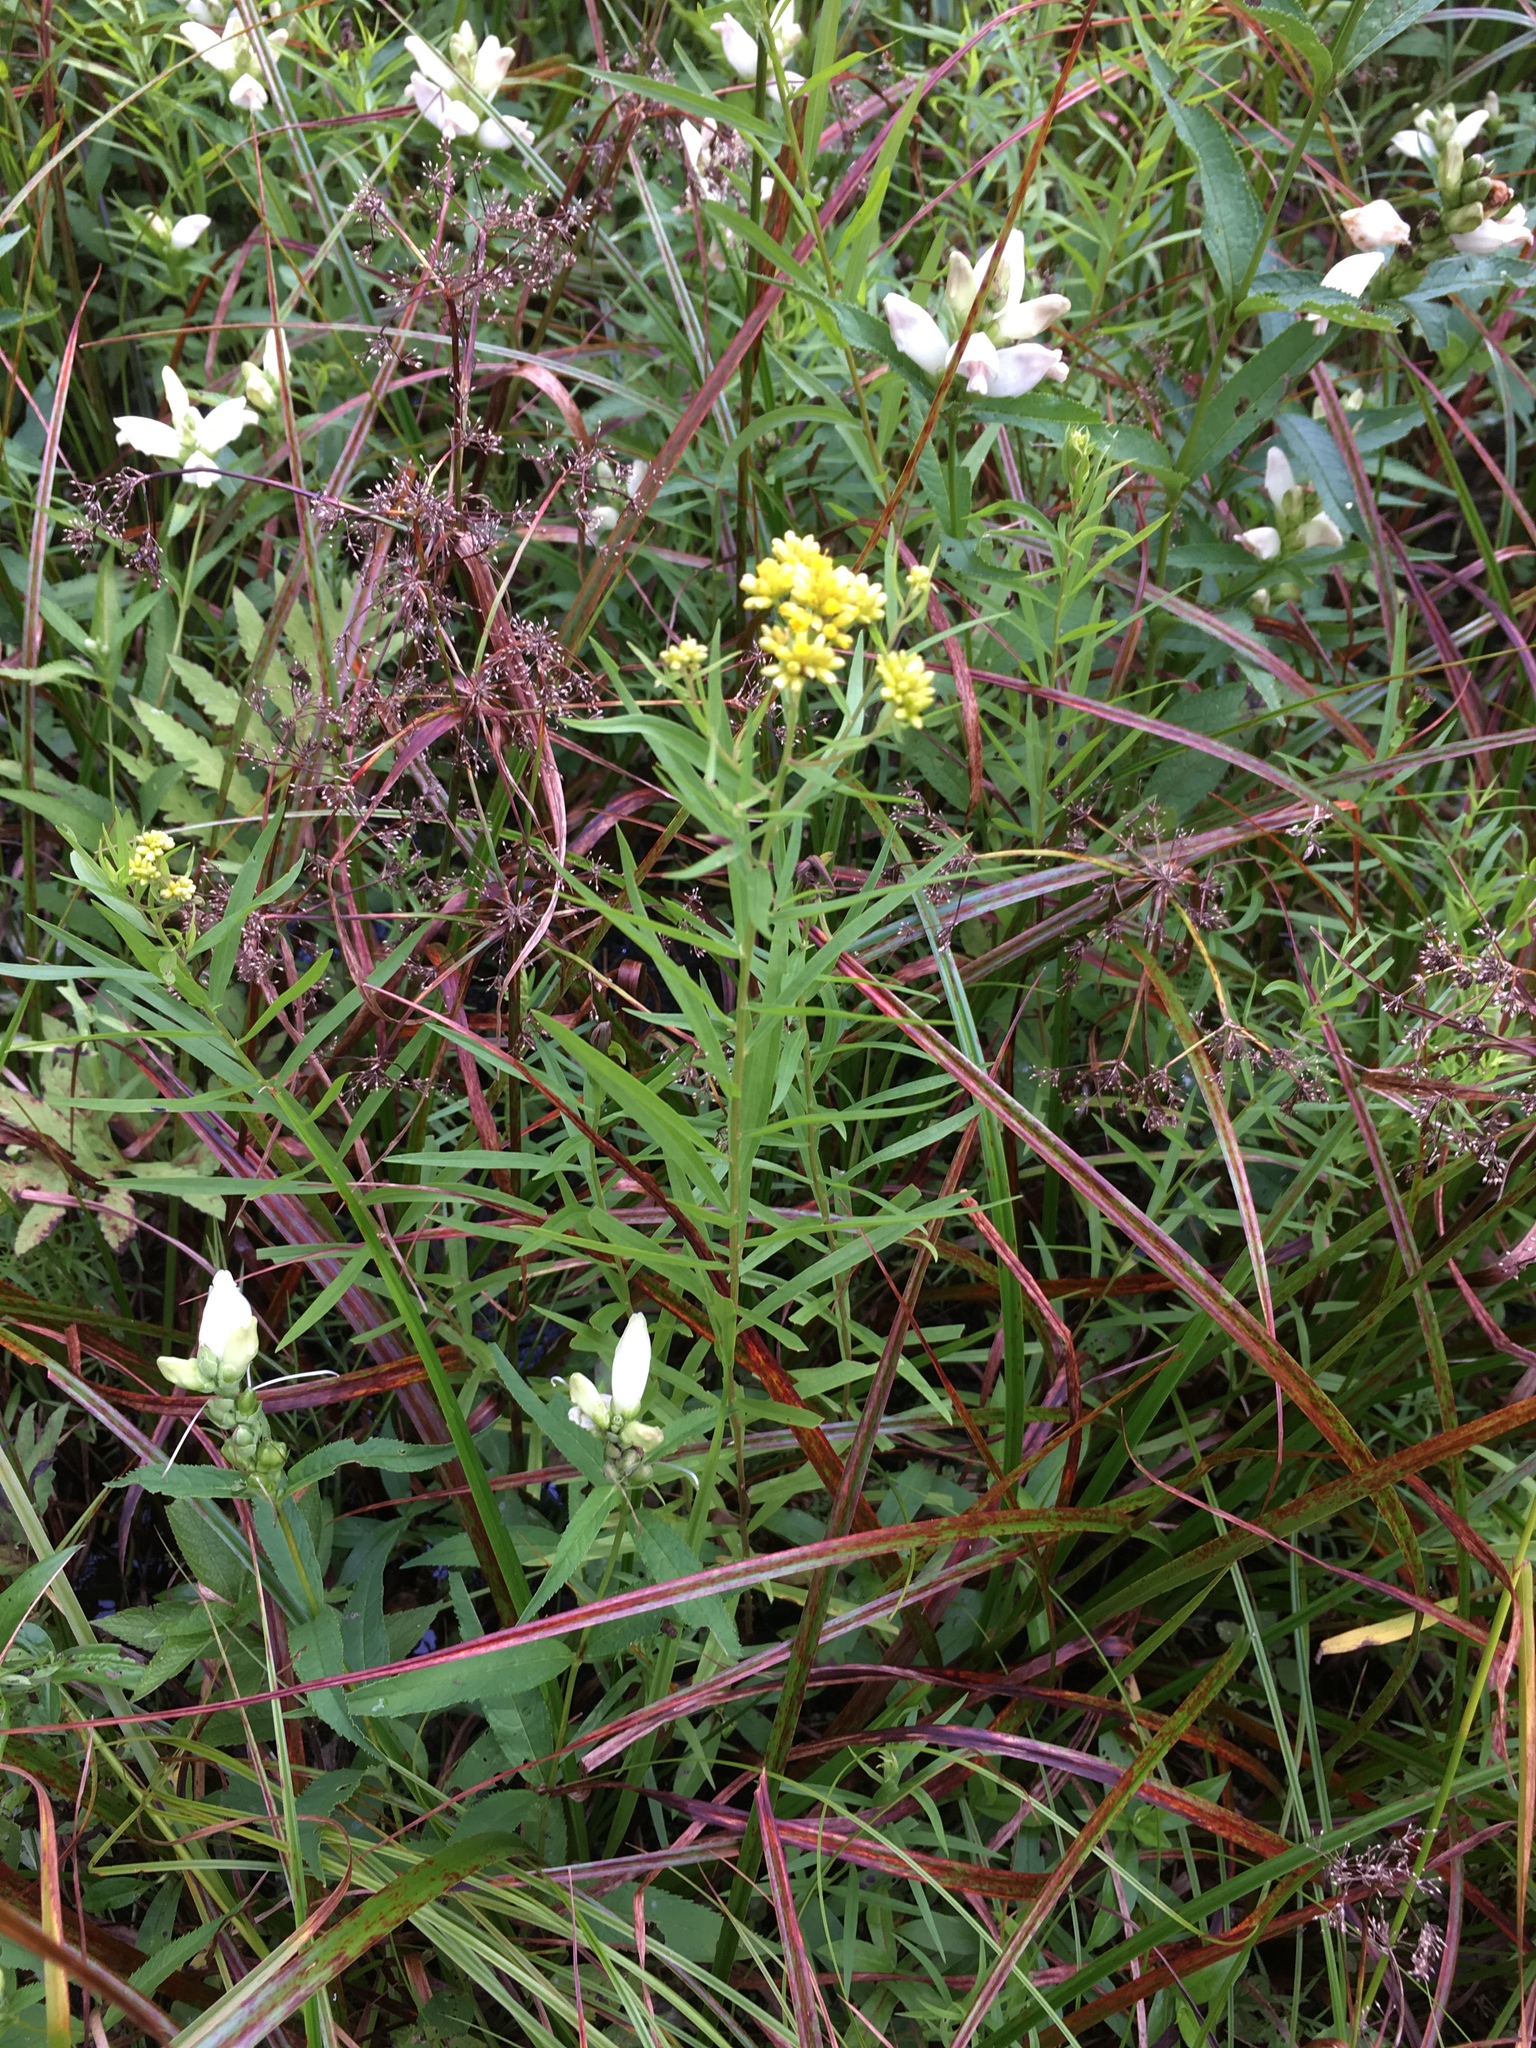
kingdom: Plantae
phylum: Tracheophyta
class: Magnoliopsida
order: Asterales
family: Asteraceae
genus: Euthamia
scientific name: Euthamia graminifolia
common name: Common goldentop
